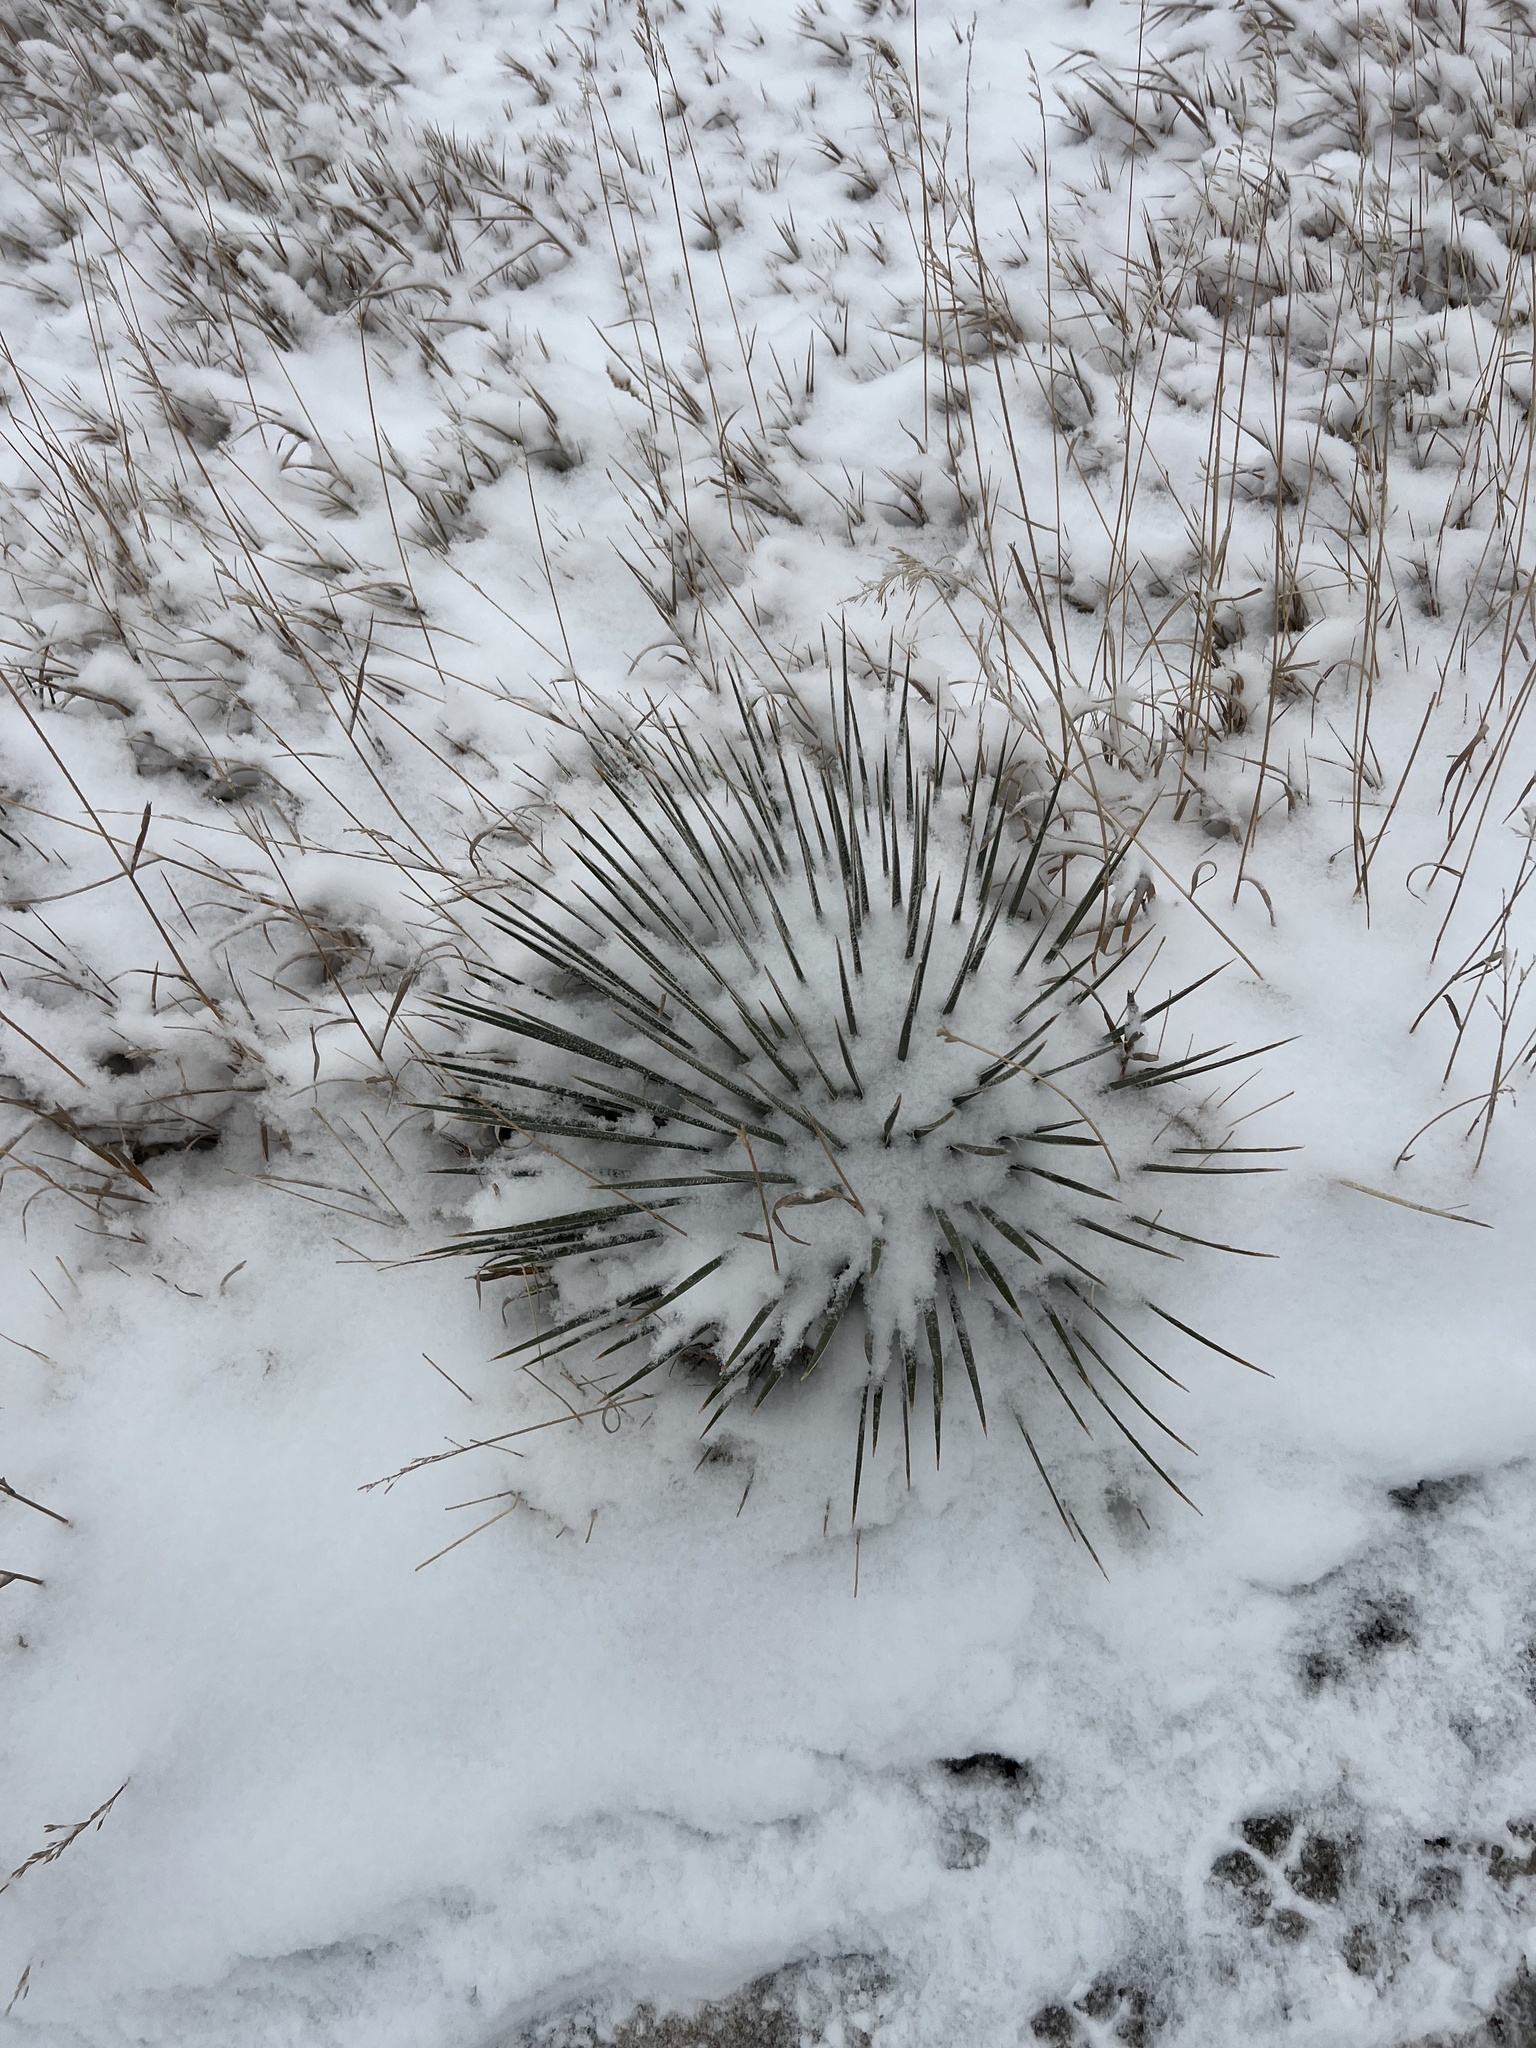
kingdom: Plantae
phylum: Tracheophyta
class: Liliopsida
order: Asparagales
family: Asparagaceae
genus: Yucca
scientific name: Yucca glauca
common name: Great plains yucca
